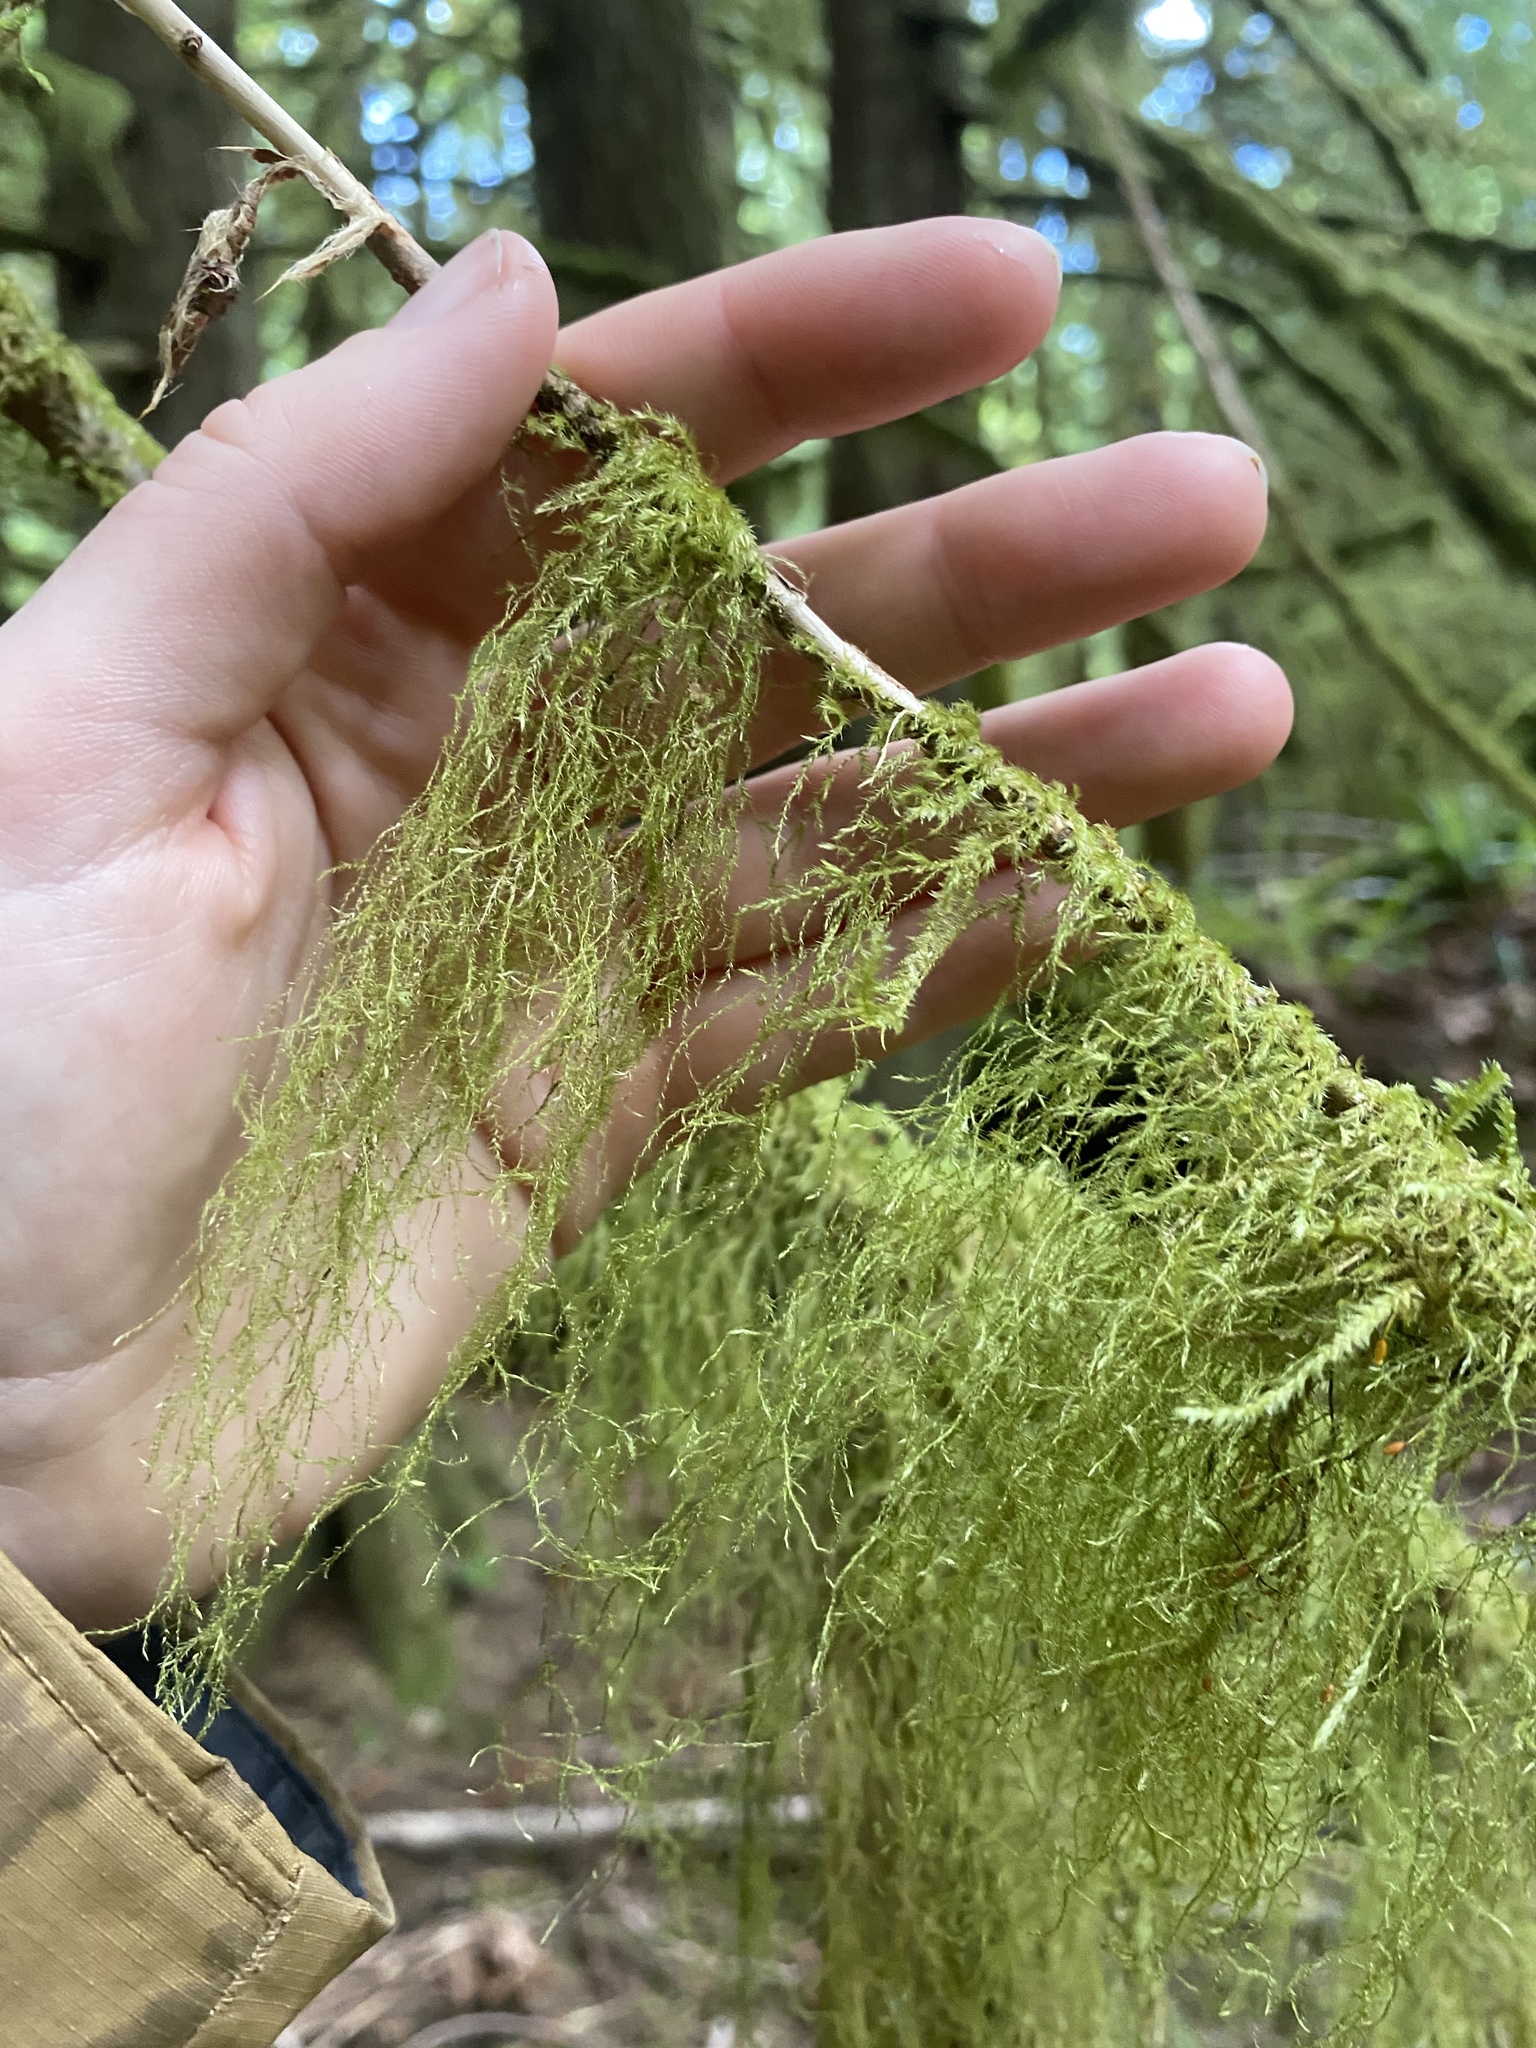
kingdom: Plantae
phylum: Bryophyta
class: Bryopsida
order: Hypnales
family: Lembophyllaceae
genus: Pseudisothecium
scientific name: Pseudisothecium stoloniferum
